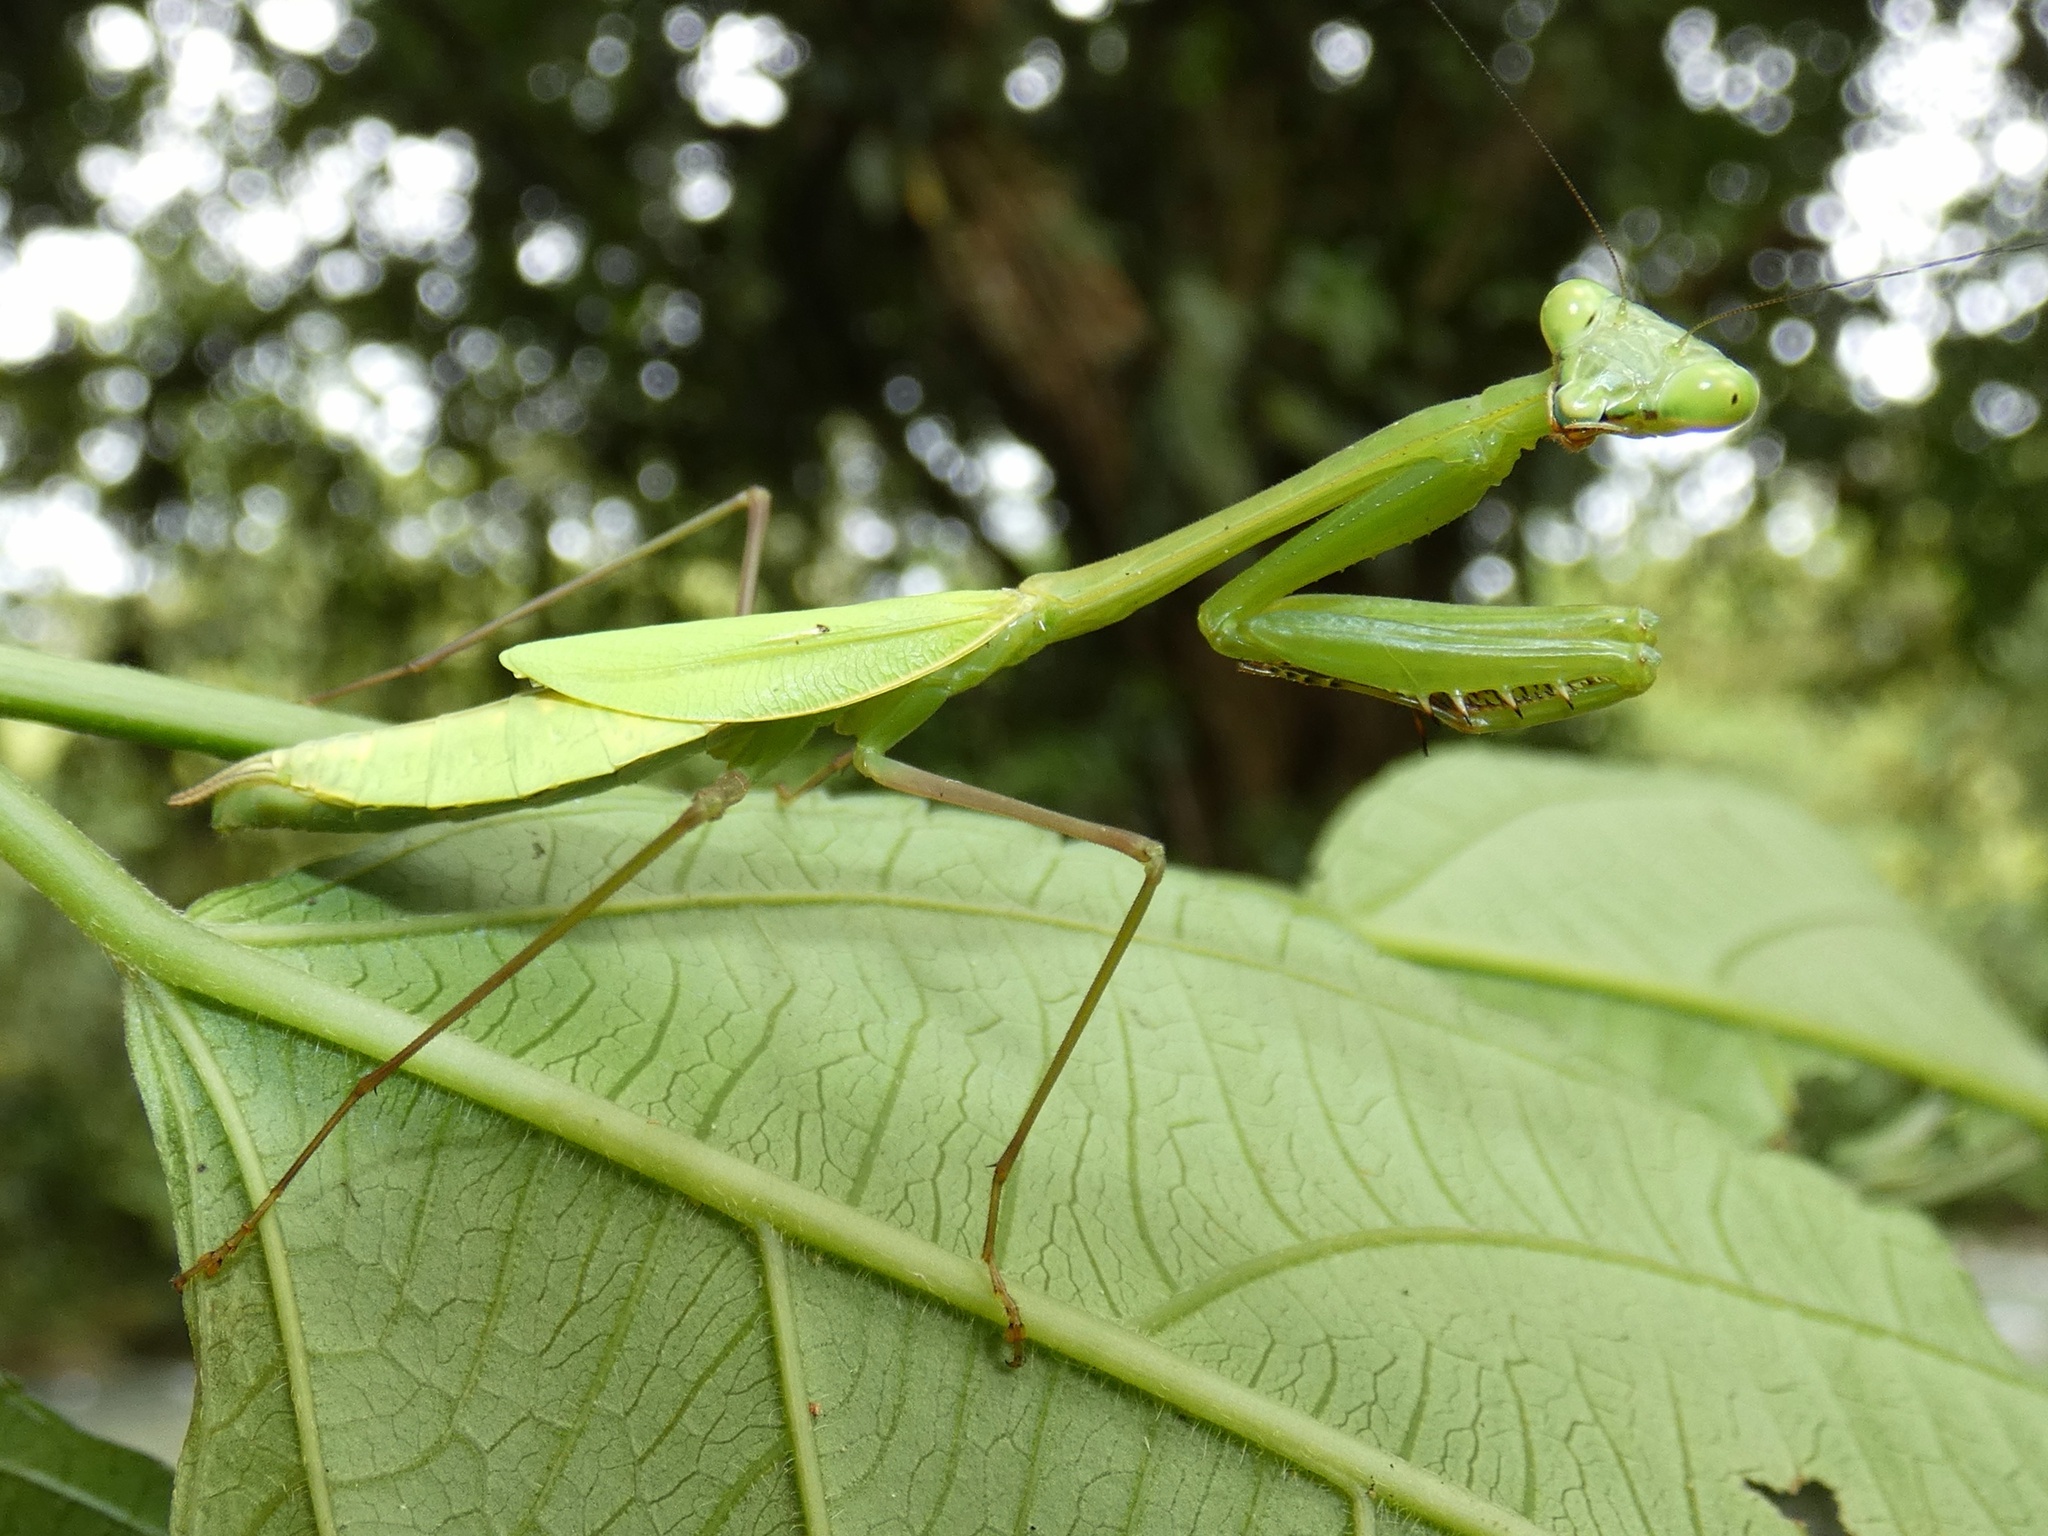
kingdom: Animalia
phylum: Arthropoda
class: Insecta
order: Mantodea
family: Mantidae
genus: Chopardiella
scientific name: Chopardiella heterogamia
